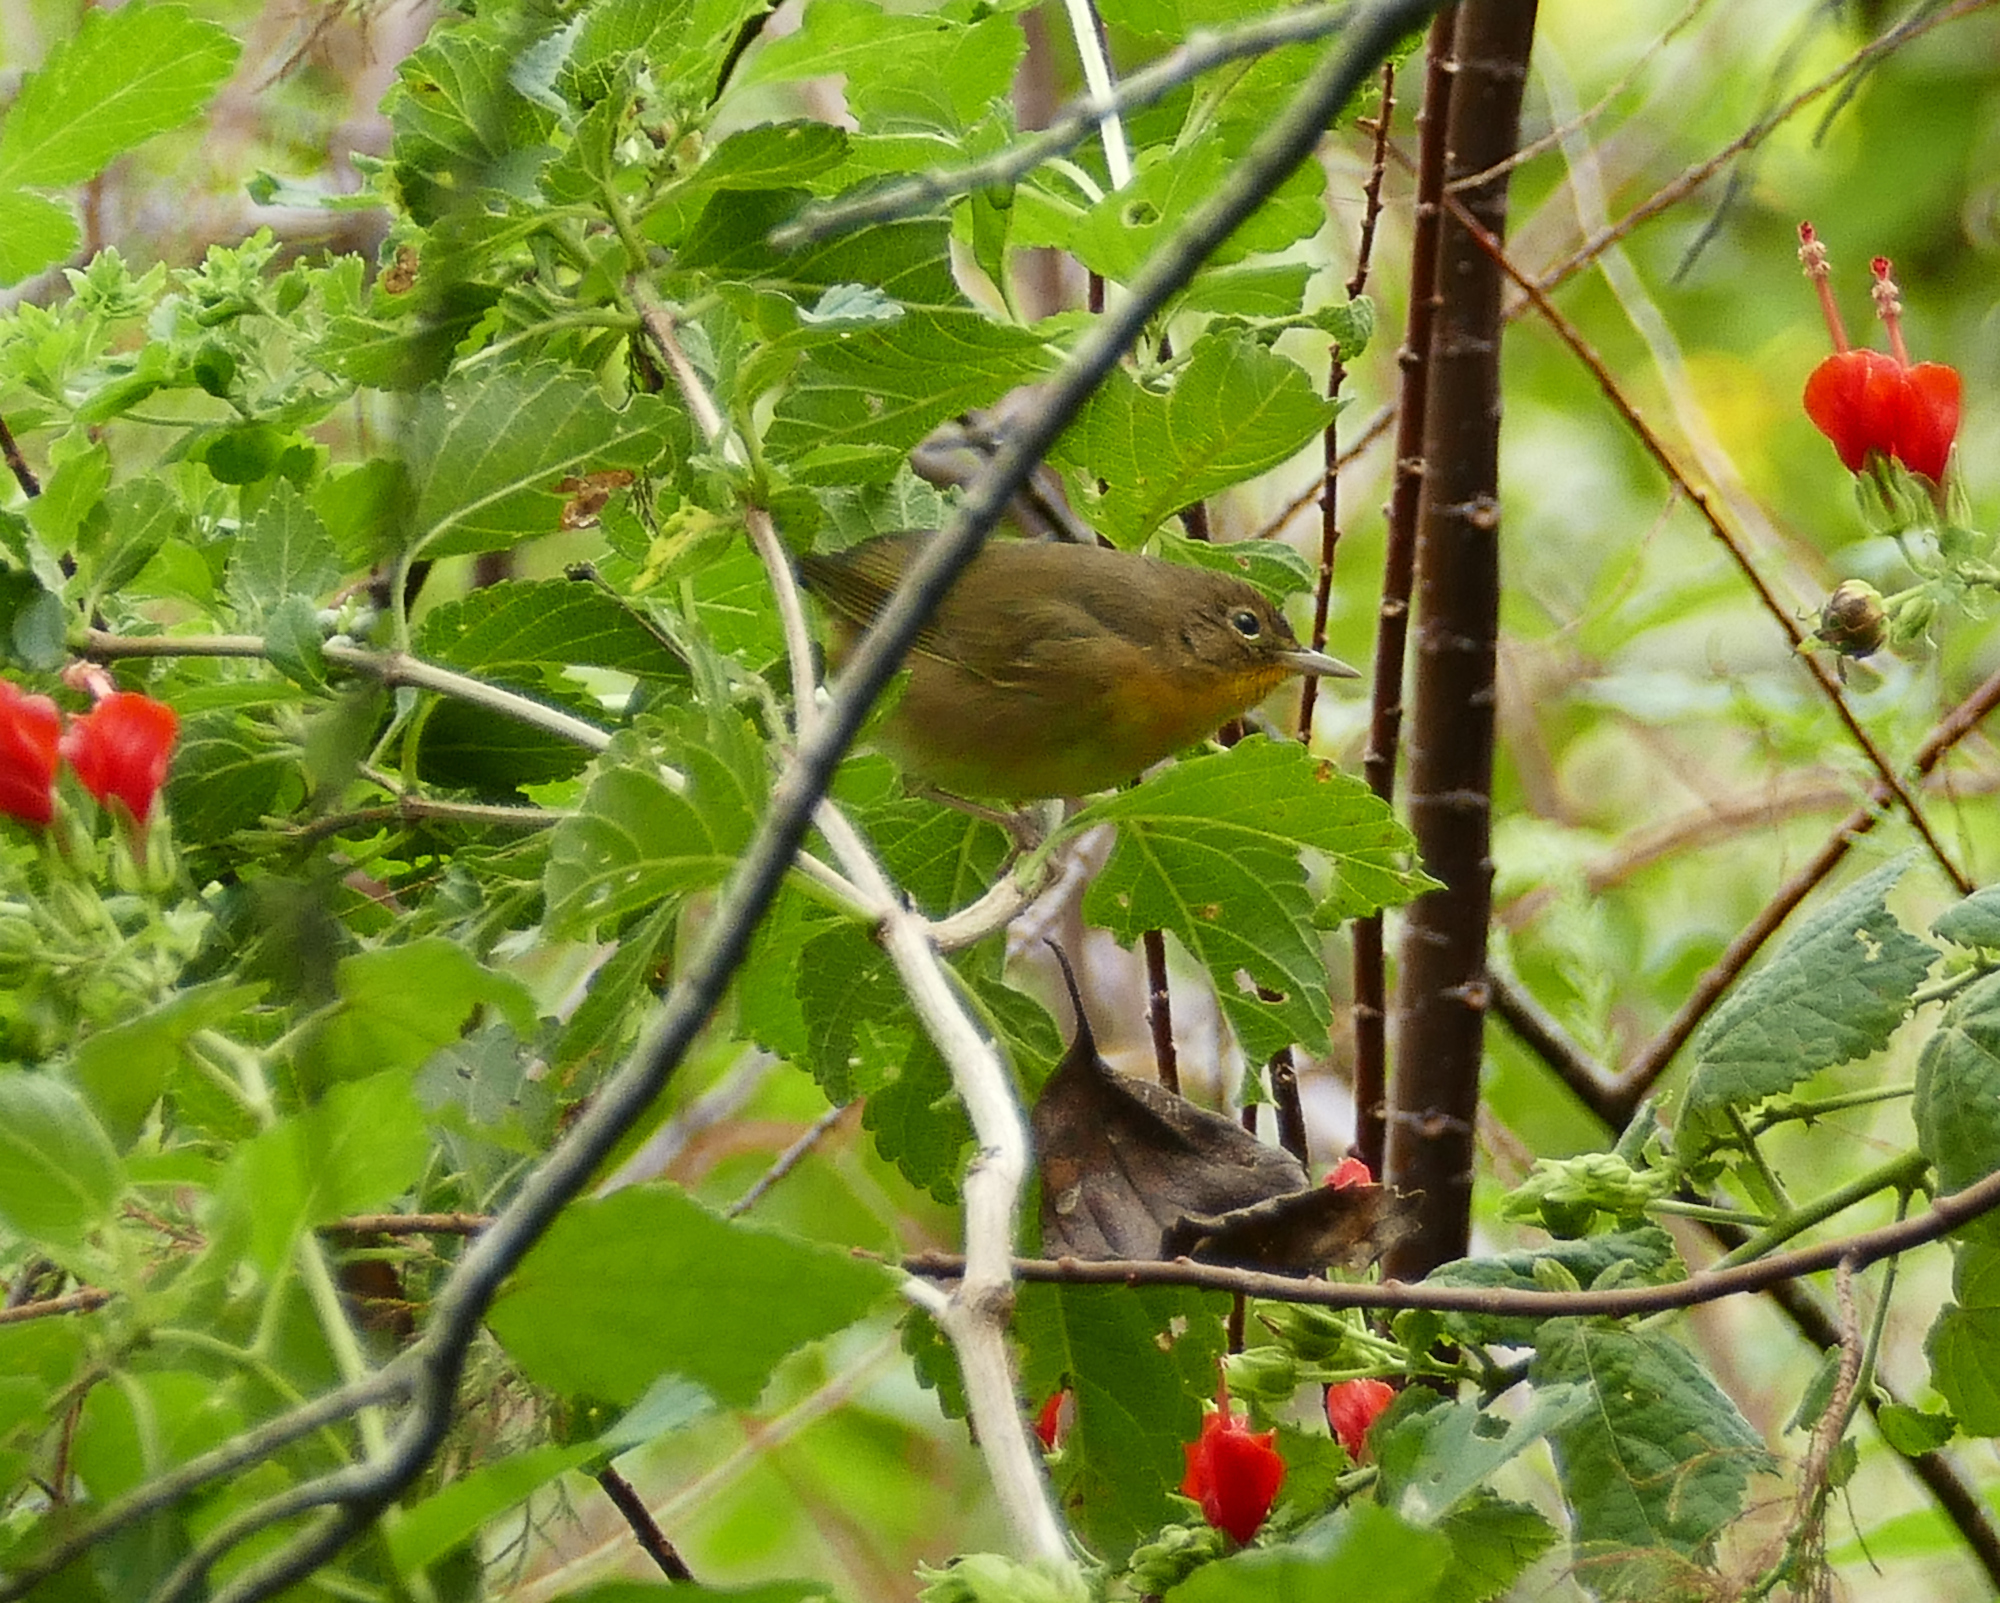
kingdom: Animalia
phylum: Chordata
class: Aves
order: Passeriformes
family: Parulidae
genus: Geothlypis
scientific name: Geothlypis trichas
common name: Common yellowthroat
